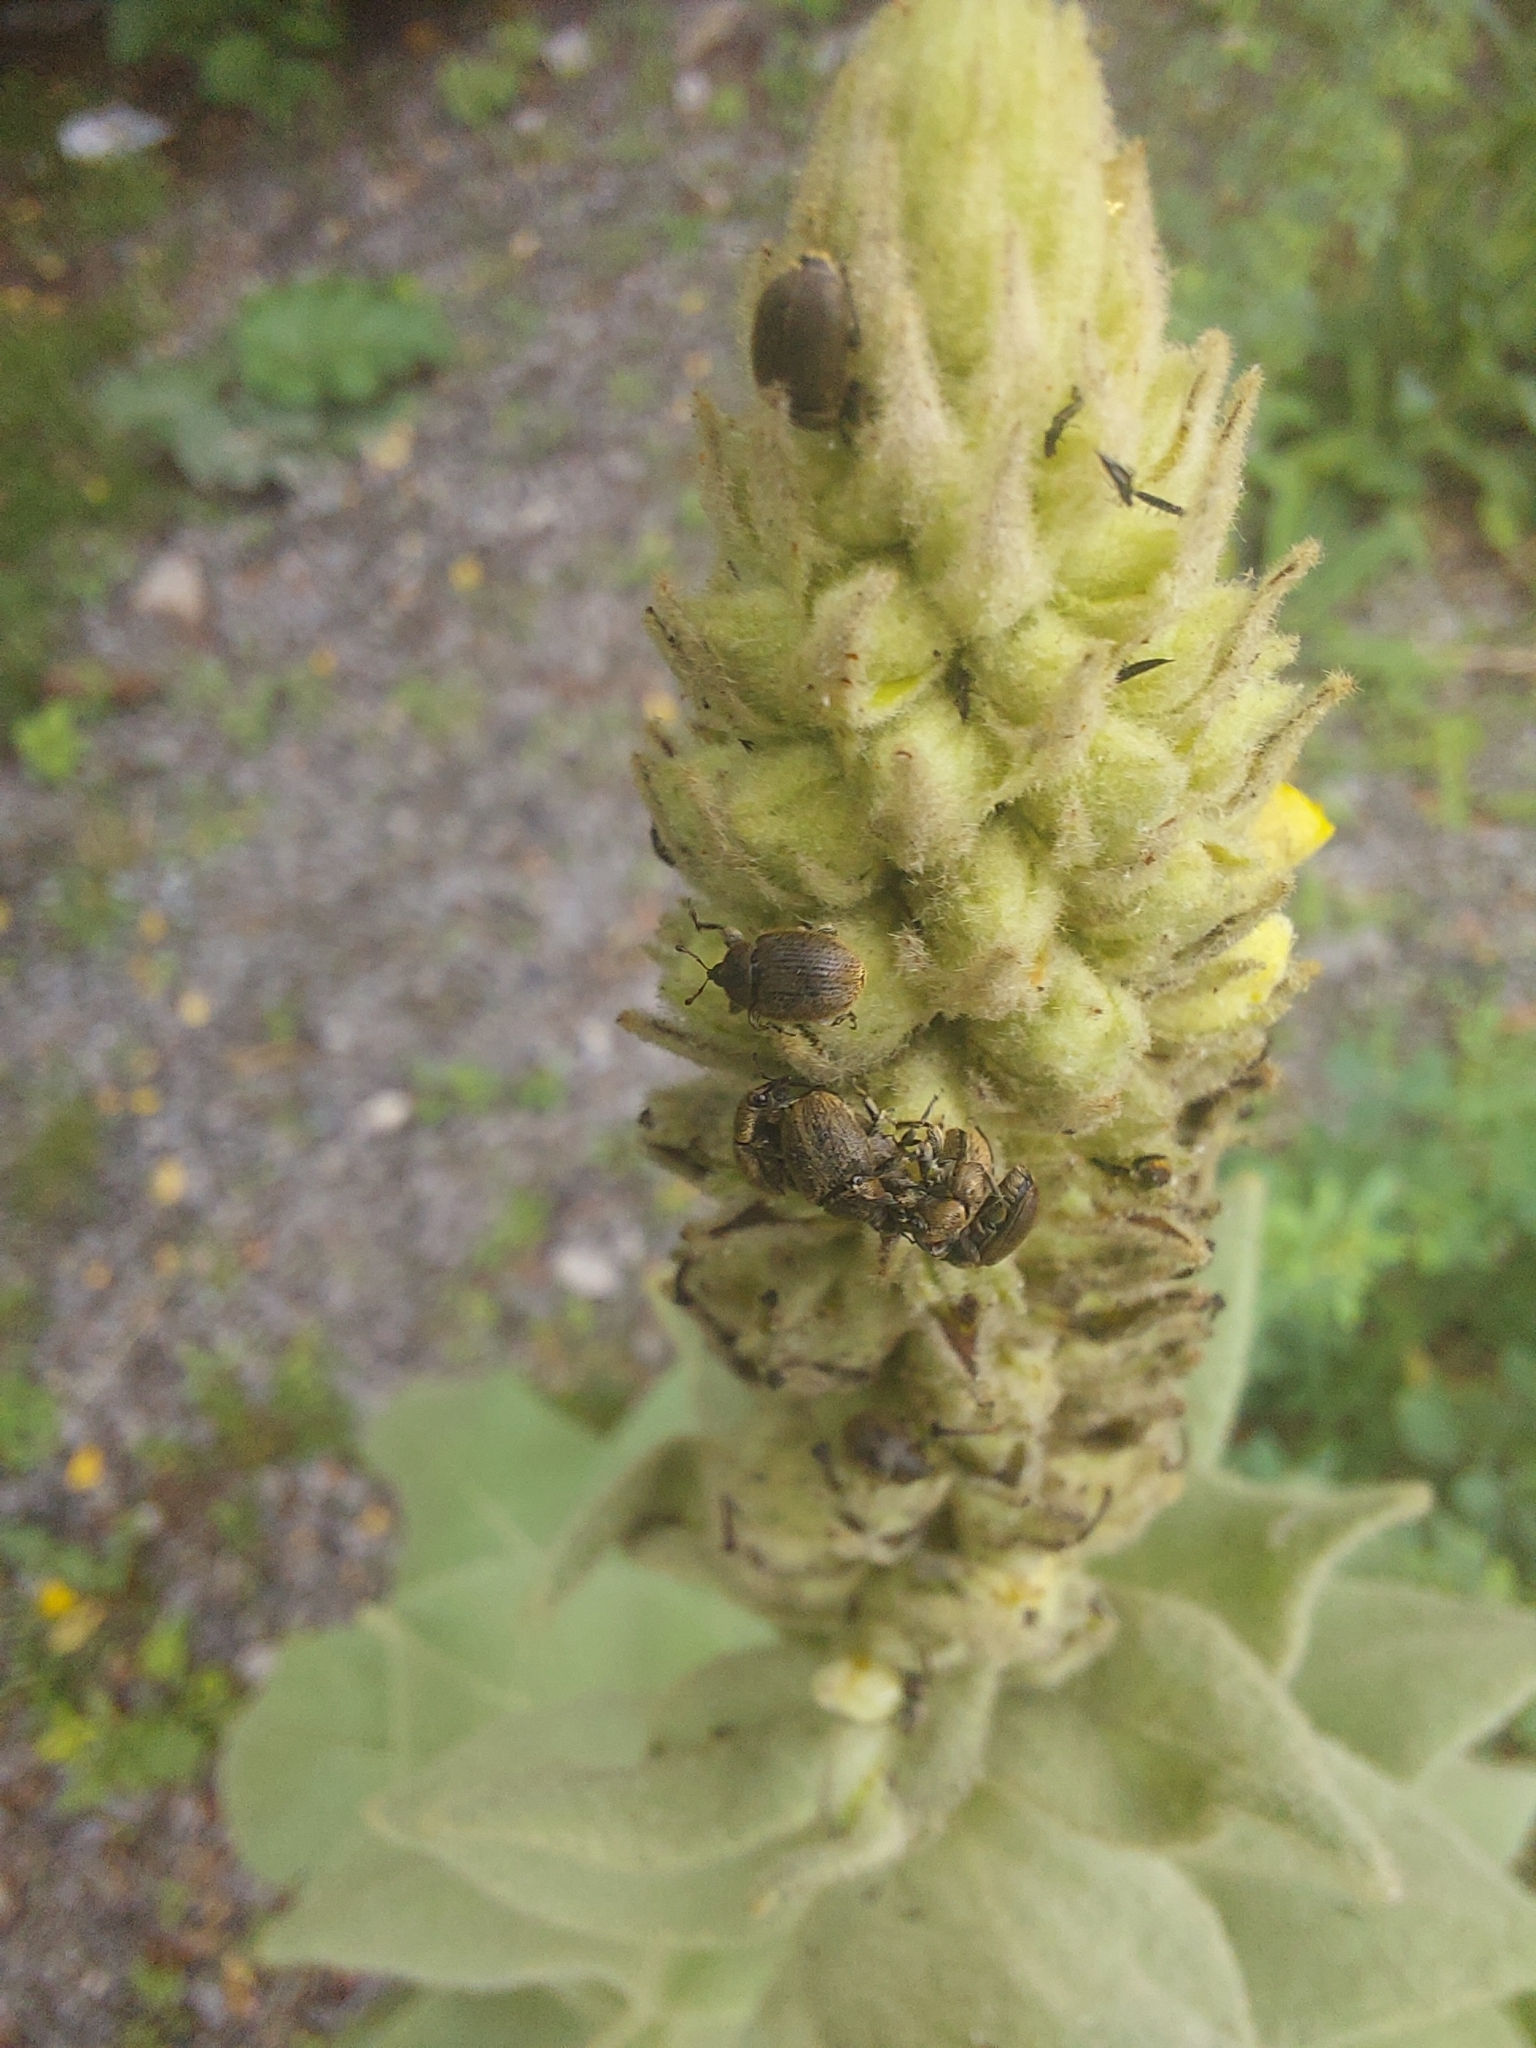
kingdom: Animalia
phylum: Arthropoda
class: Insecta
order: Coleoptera
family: Curculionidae
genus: Rhinusa
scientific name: Rhinusa tetra
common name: Weevil
